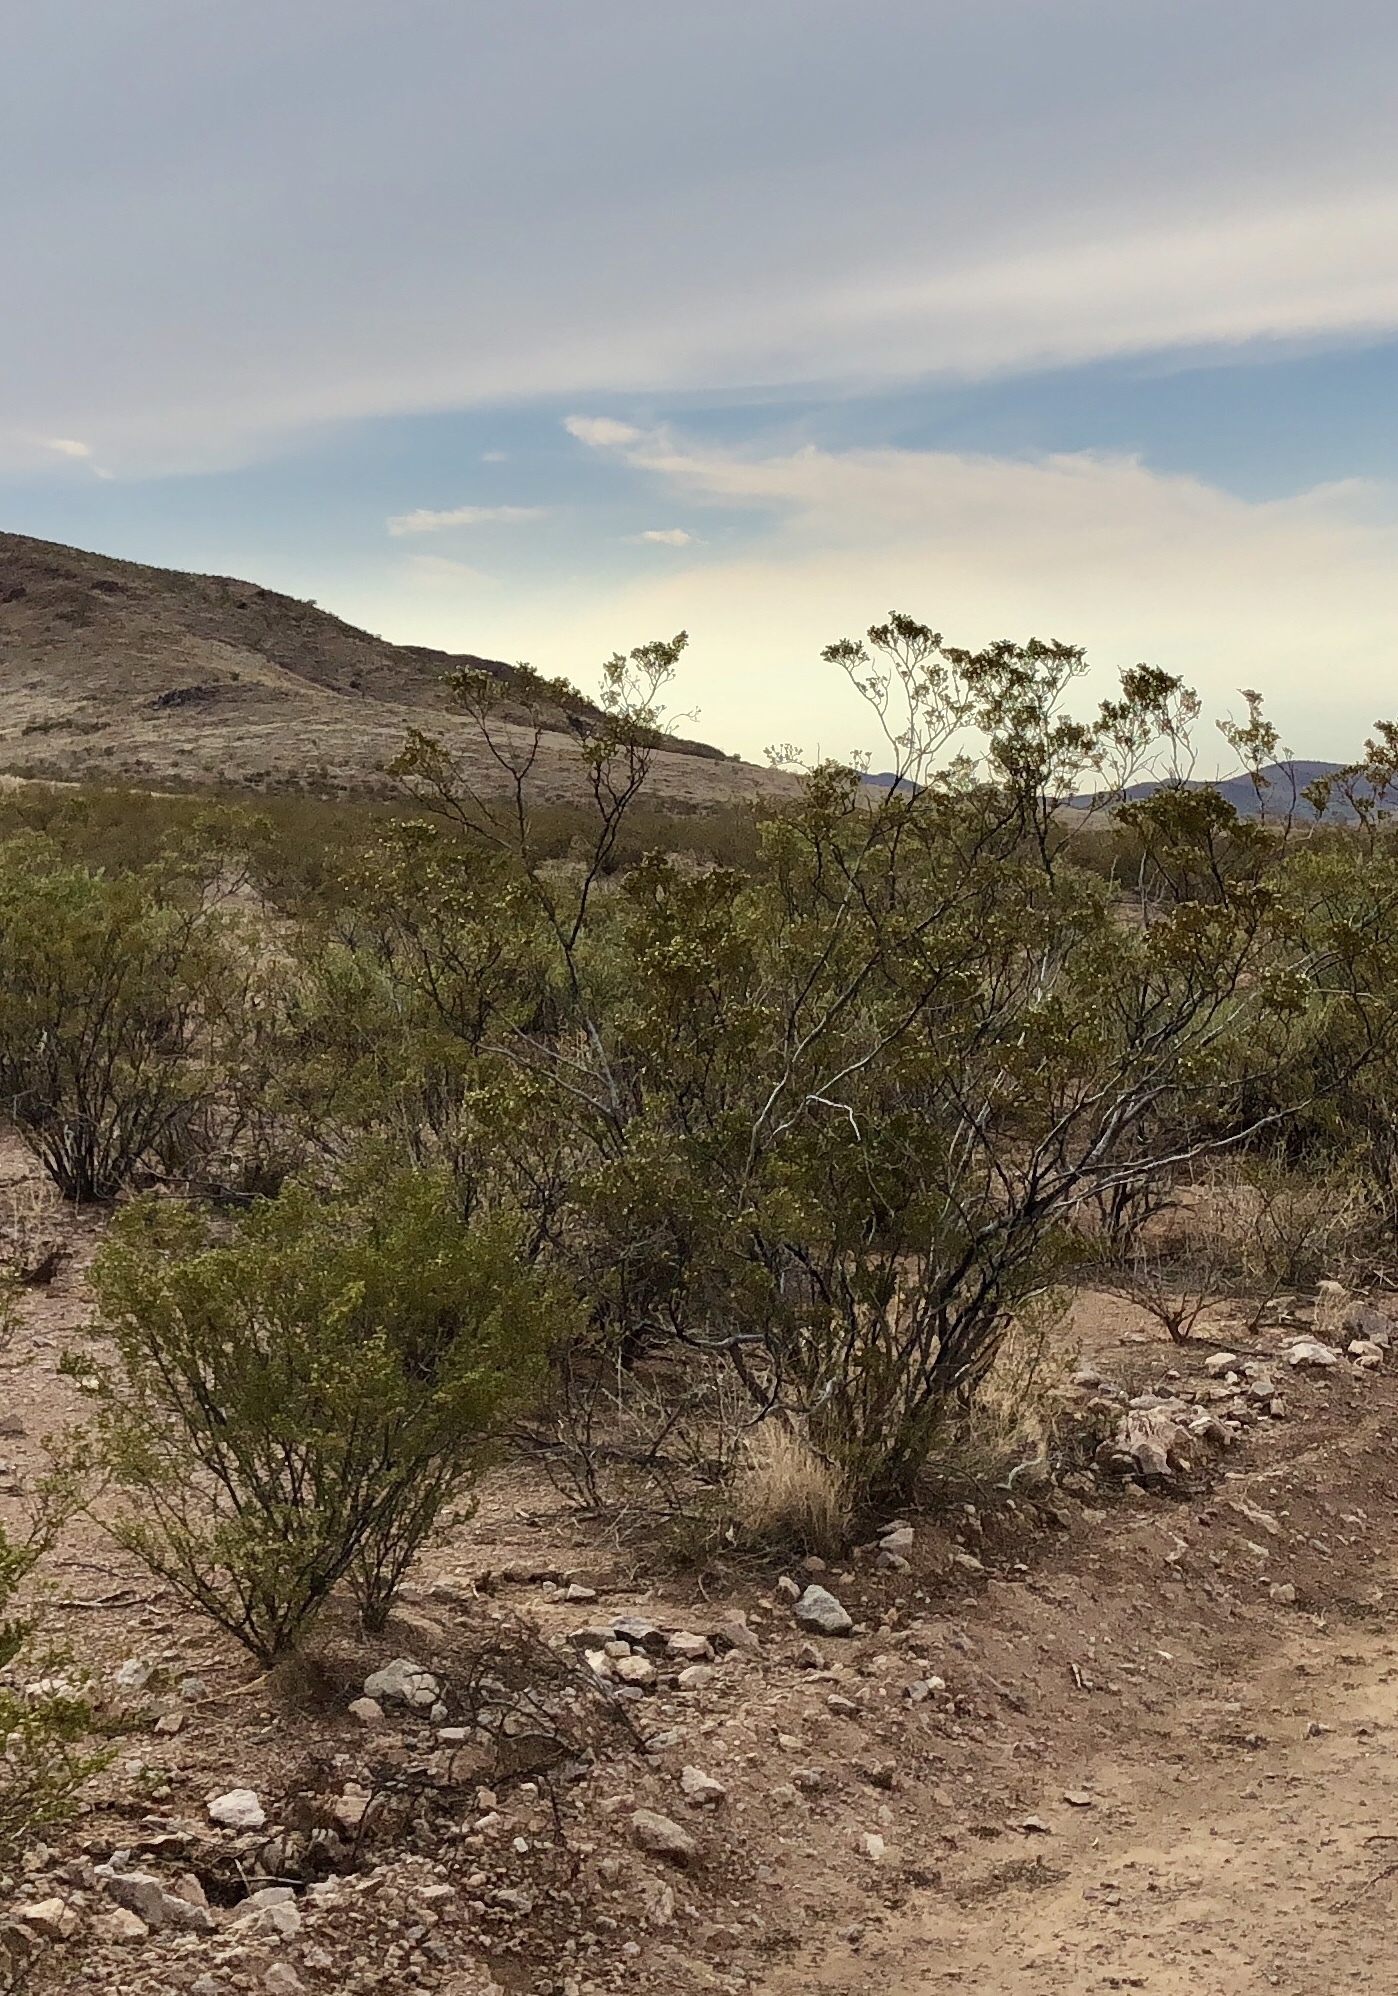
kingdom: Plantae
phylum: Tracheophyta
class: Magnoliopsida
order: Zygophyllales
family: Zygophyllaceae
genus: Larrea
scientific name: Larrea tridentata
